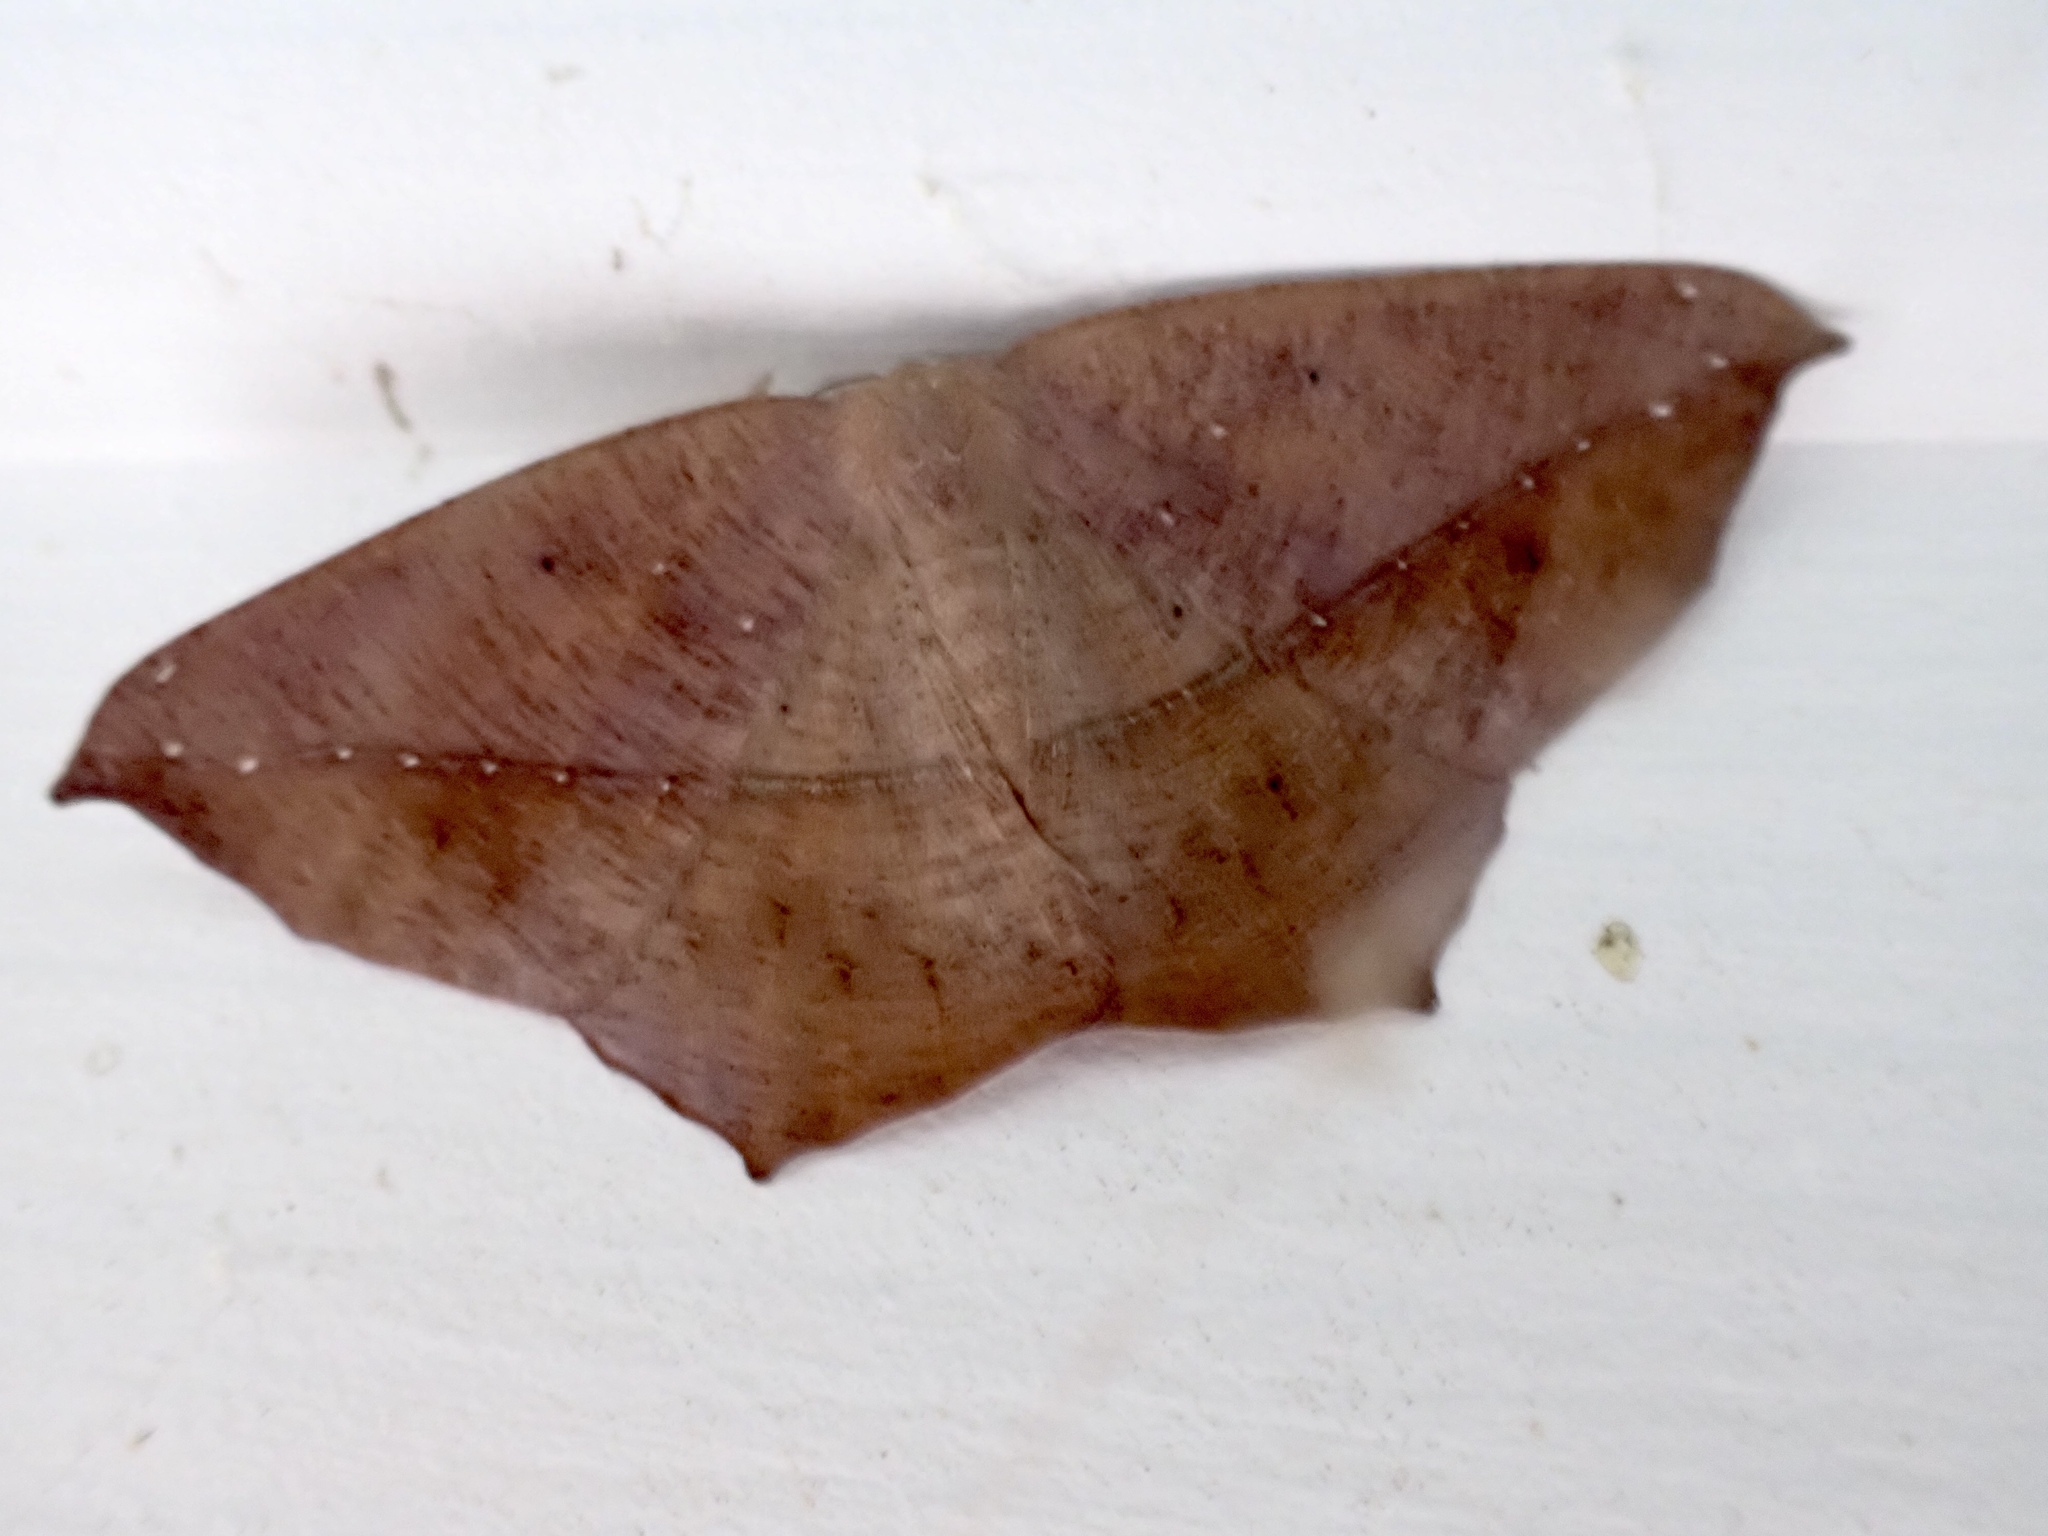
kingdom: Animalia
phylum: Arthropoda
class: Insecta
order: Lepidoptera
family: Geometridae
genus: Prochoerodes
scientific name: Prochoerodes lineola
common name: Large maple spanworm
